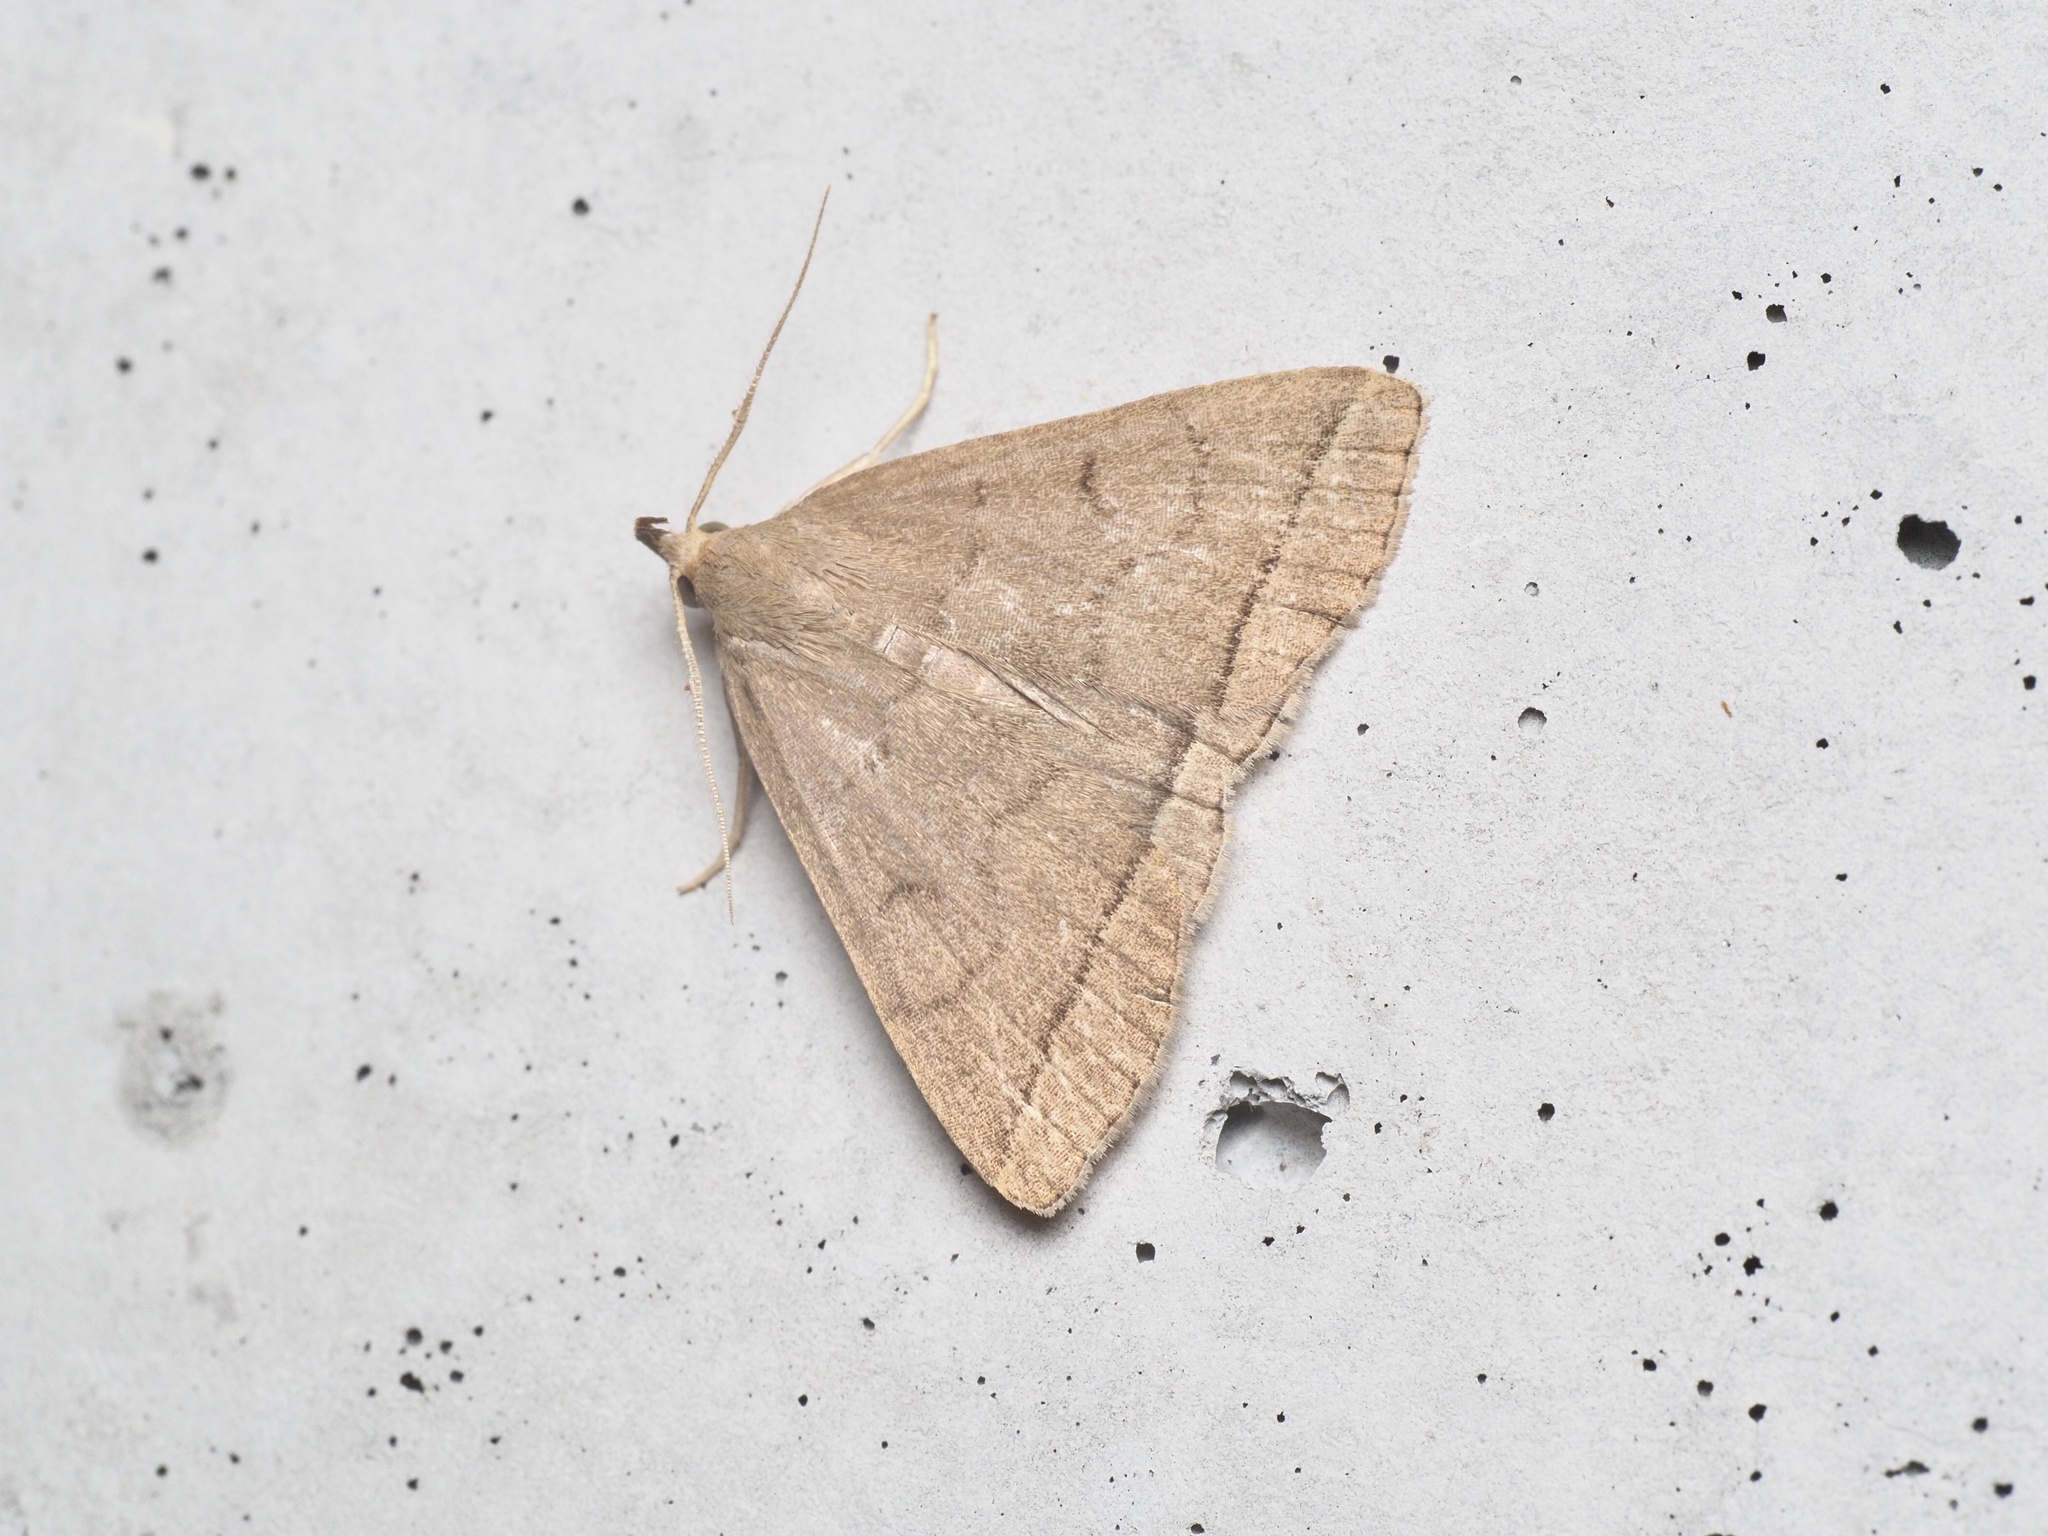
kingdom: Animalia
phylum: Arthropoda
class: Insecta
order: Lepidoptera
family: Erebidae
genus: Herminia
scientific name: Herminia tarsipennalis
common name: Fan-foot
